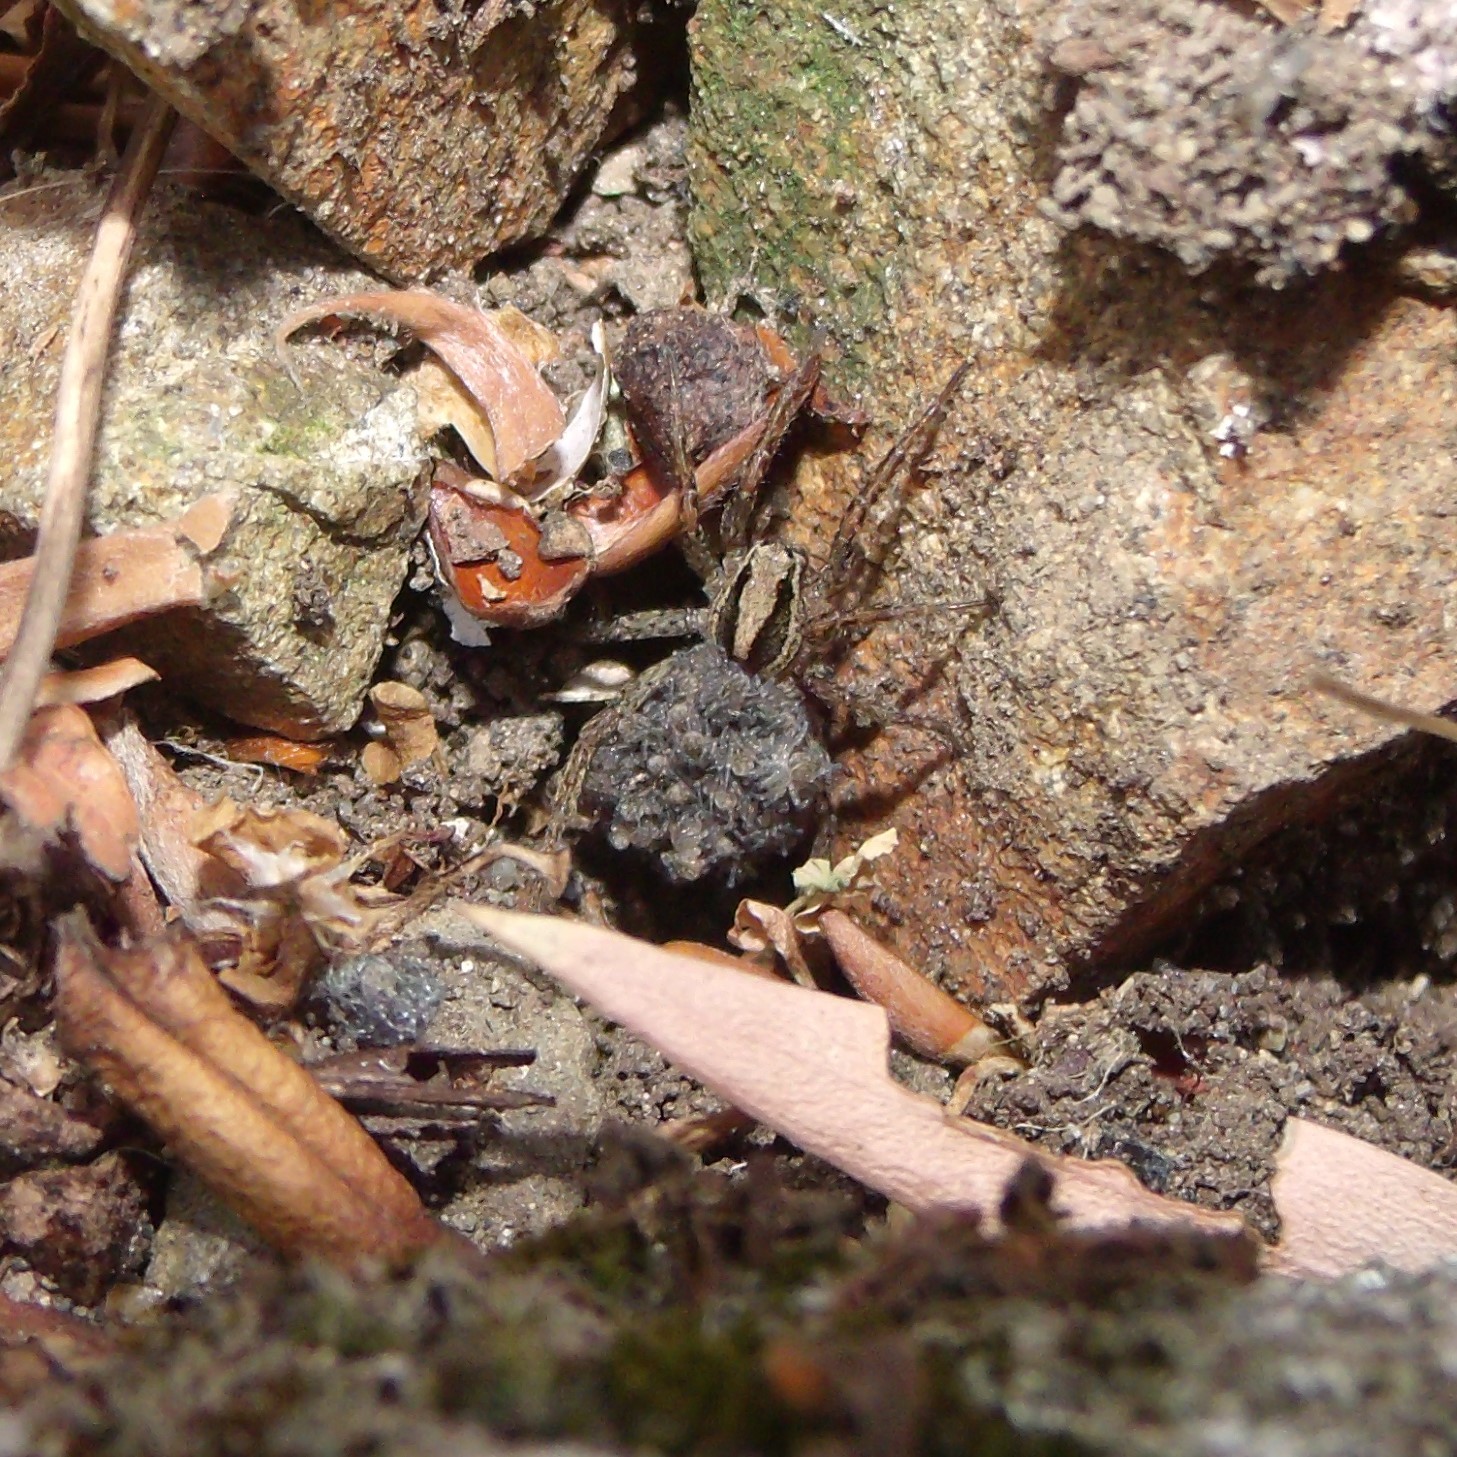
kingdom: Animalia
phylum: Arthropoda
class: Arachnida
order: Araneae
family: Lycosidae
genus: Anoteropsis
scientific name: Anoteropsis hilaris
